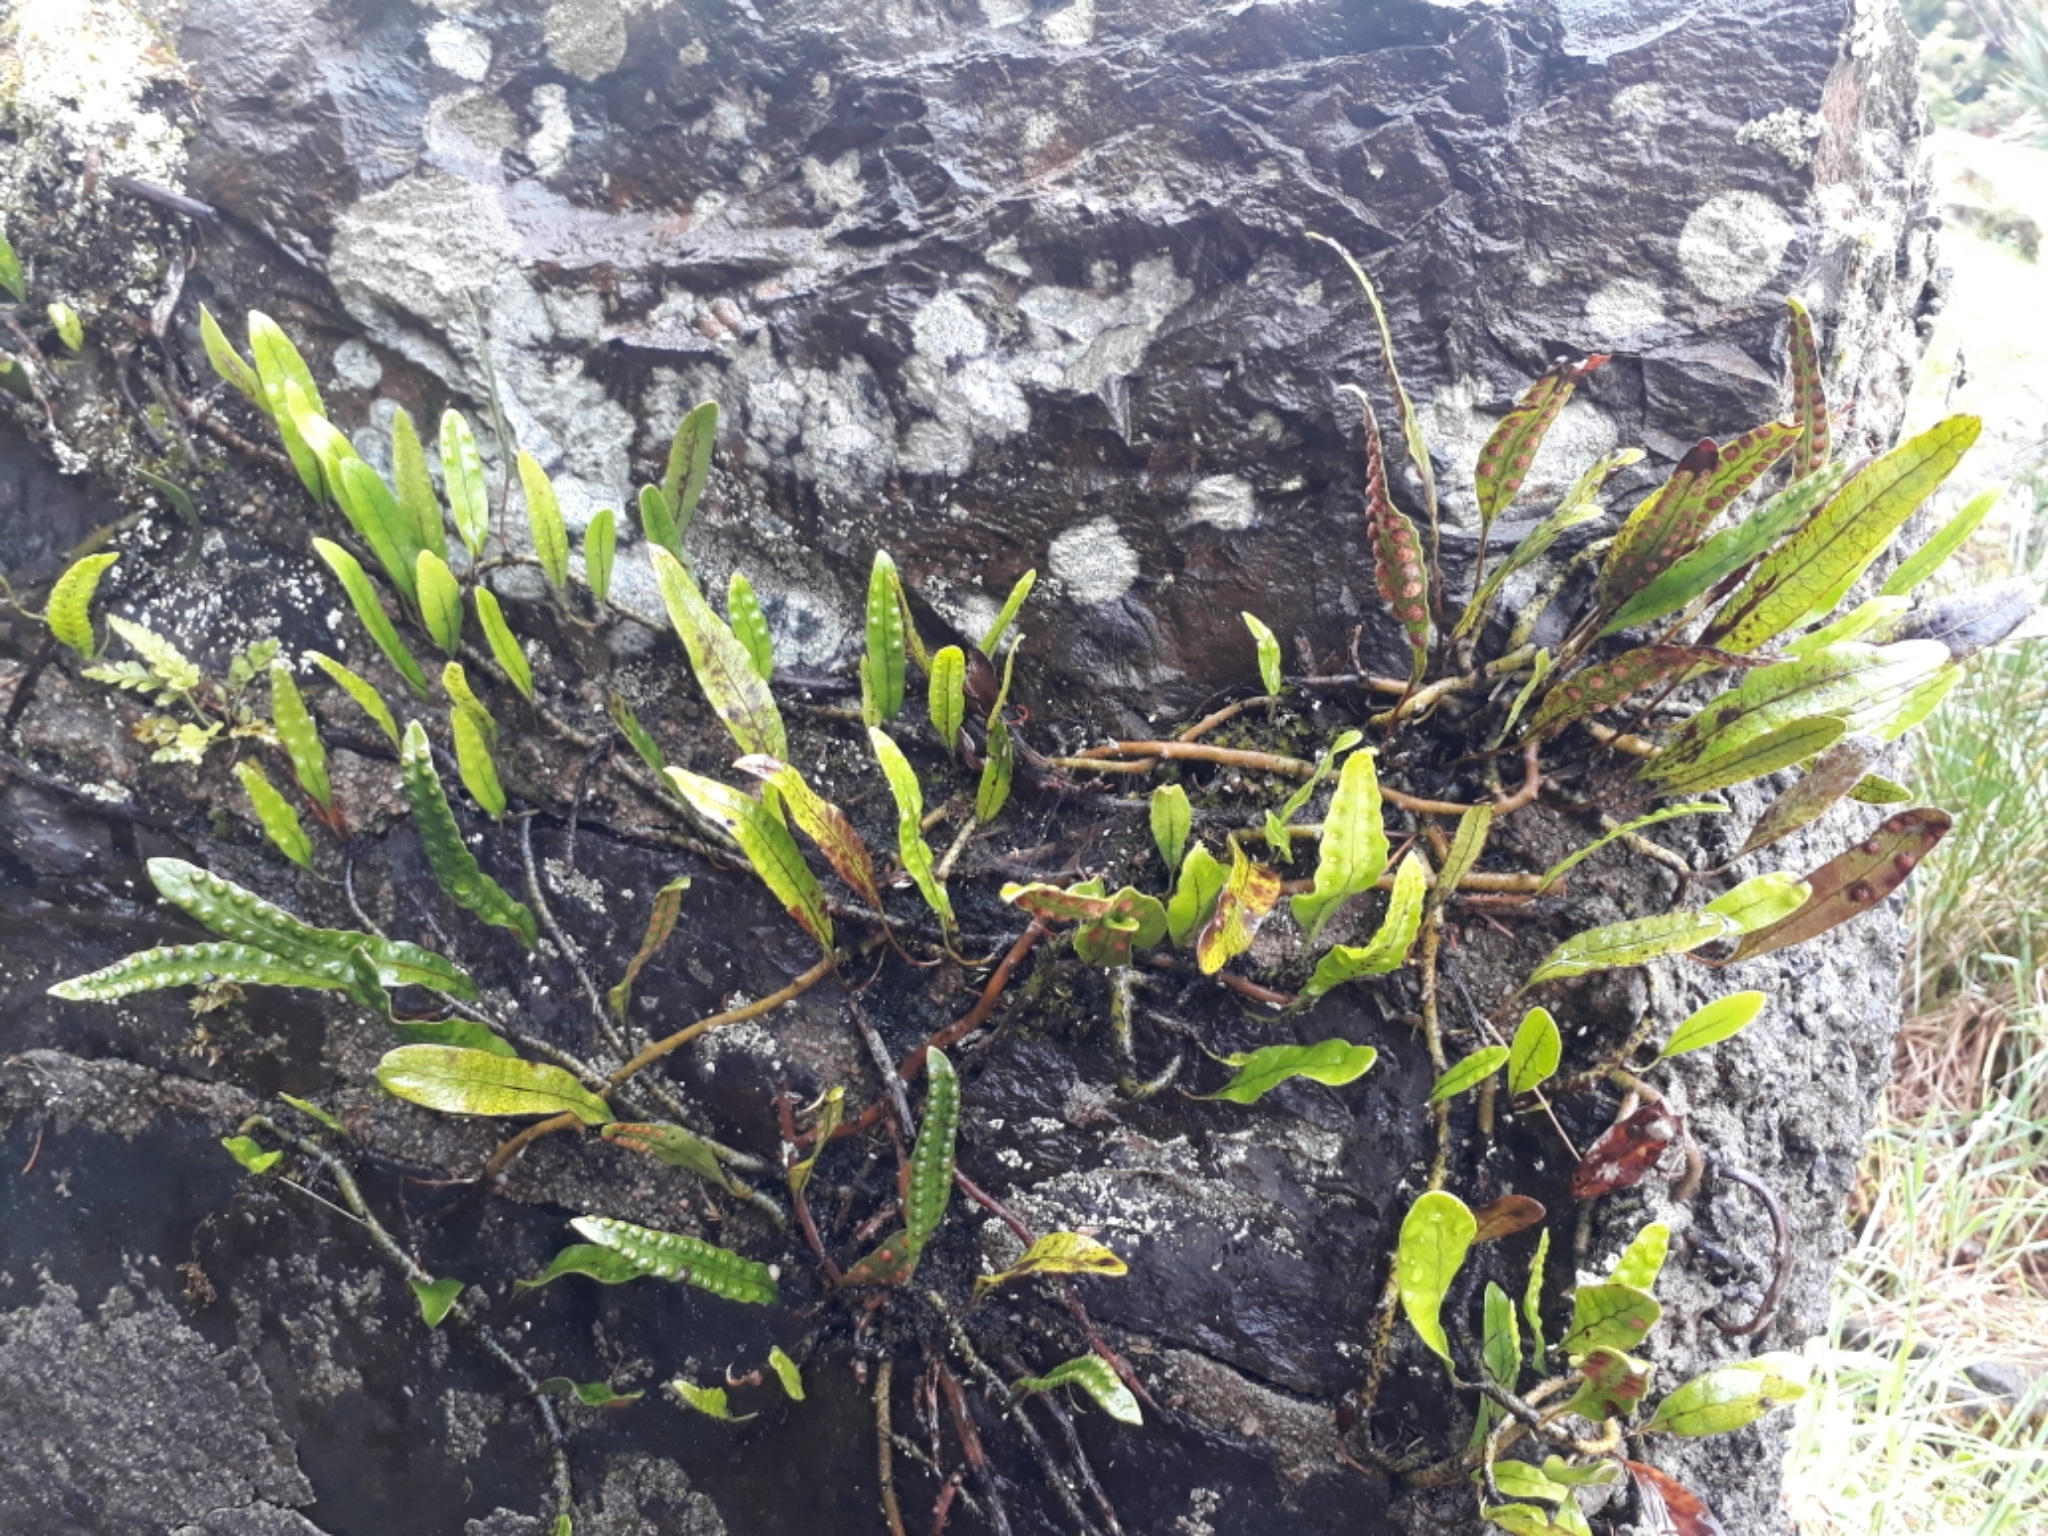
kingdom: Plantae
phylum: Tracheophyta
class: Polypodiopsida
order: Polypodiales
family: Polypodiaceae
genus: Lecanopteris
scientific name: Lecanopteris pustulata
